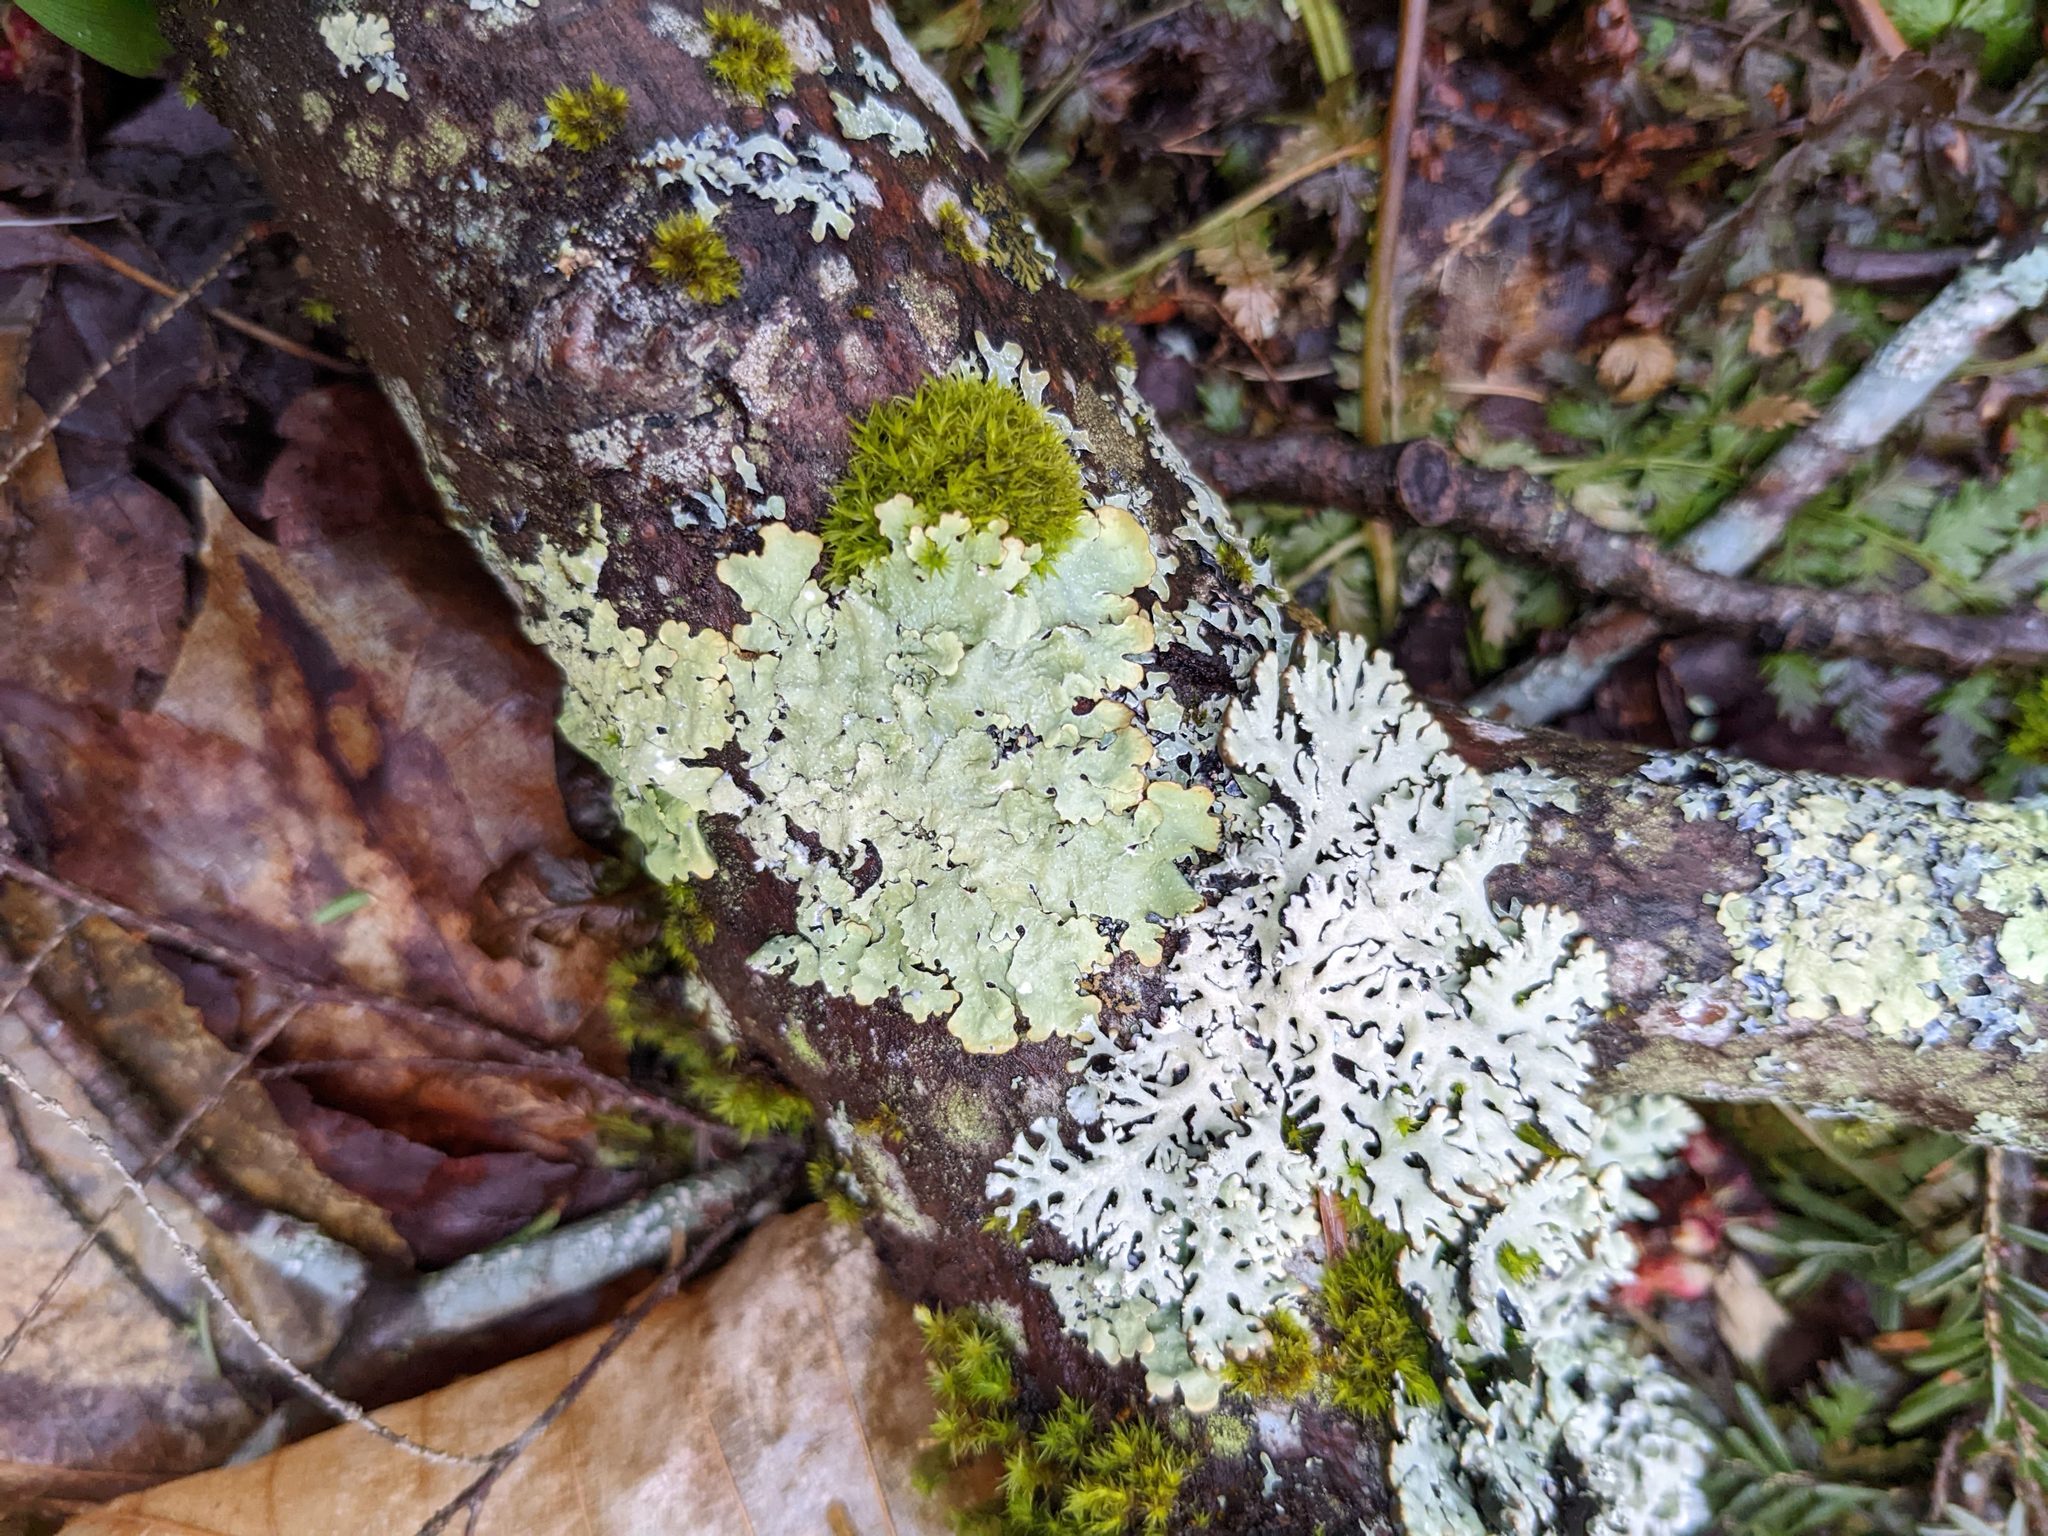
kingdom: Plantae
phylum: Bryophyta
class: Bryopsida
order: Orthotrichales
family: Orthotrichaceae
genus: Ulota
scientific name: Ulota crispa
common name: Crisped pincushion moss
